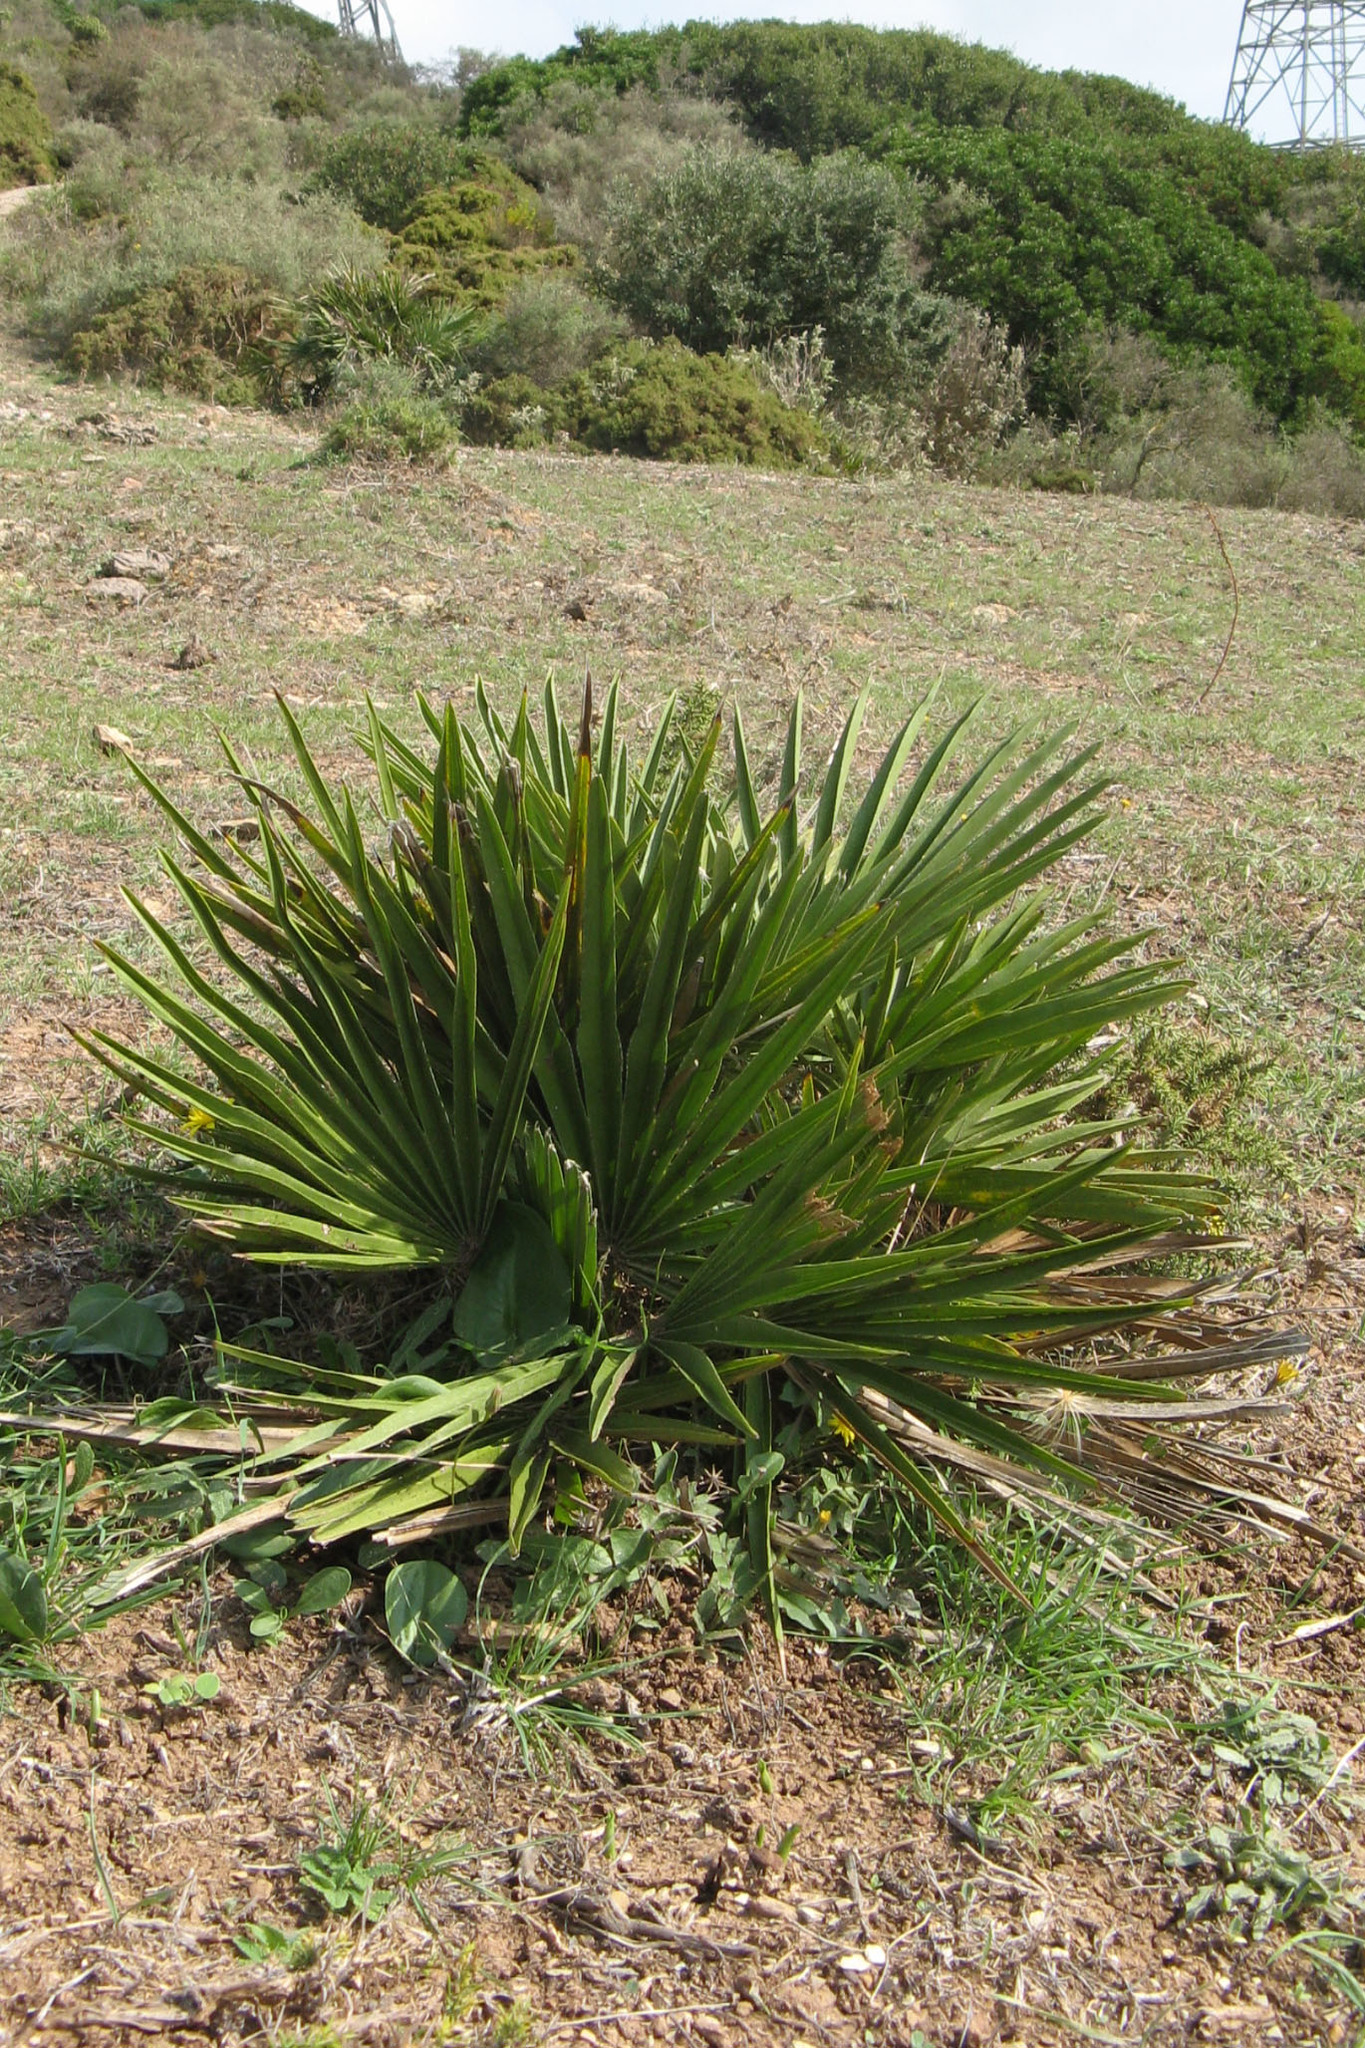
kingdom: Plantae
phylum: Tracheophyta
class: Liliopsida
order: Arecales
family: Arecaceae
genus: Chamaerops
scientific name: Chamaerops humilis
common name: Dwarf fan palm
